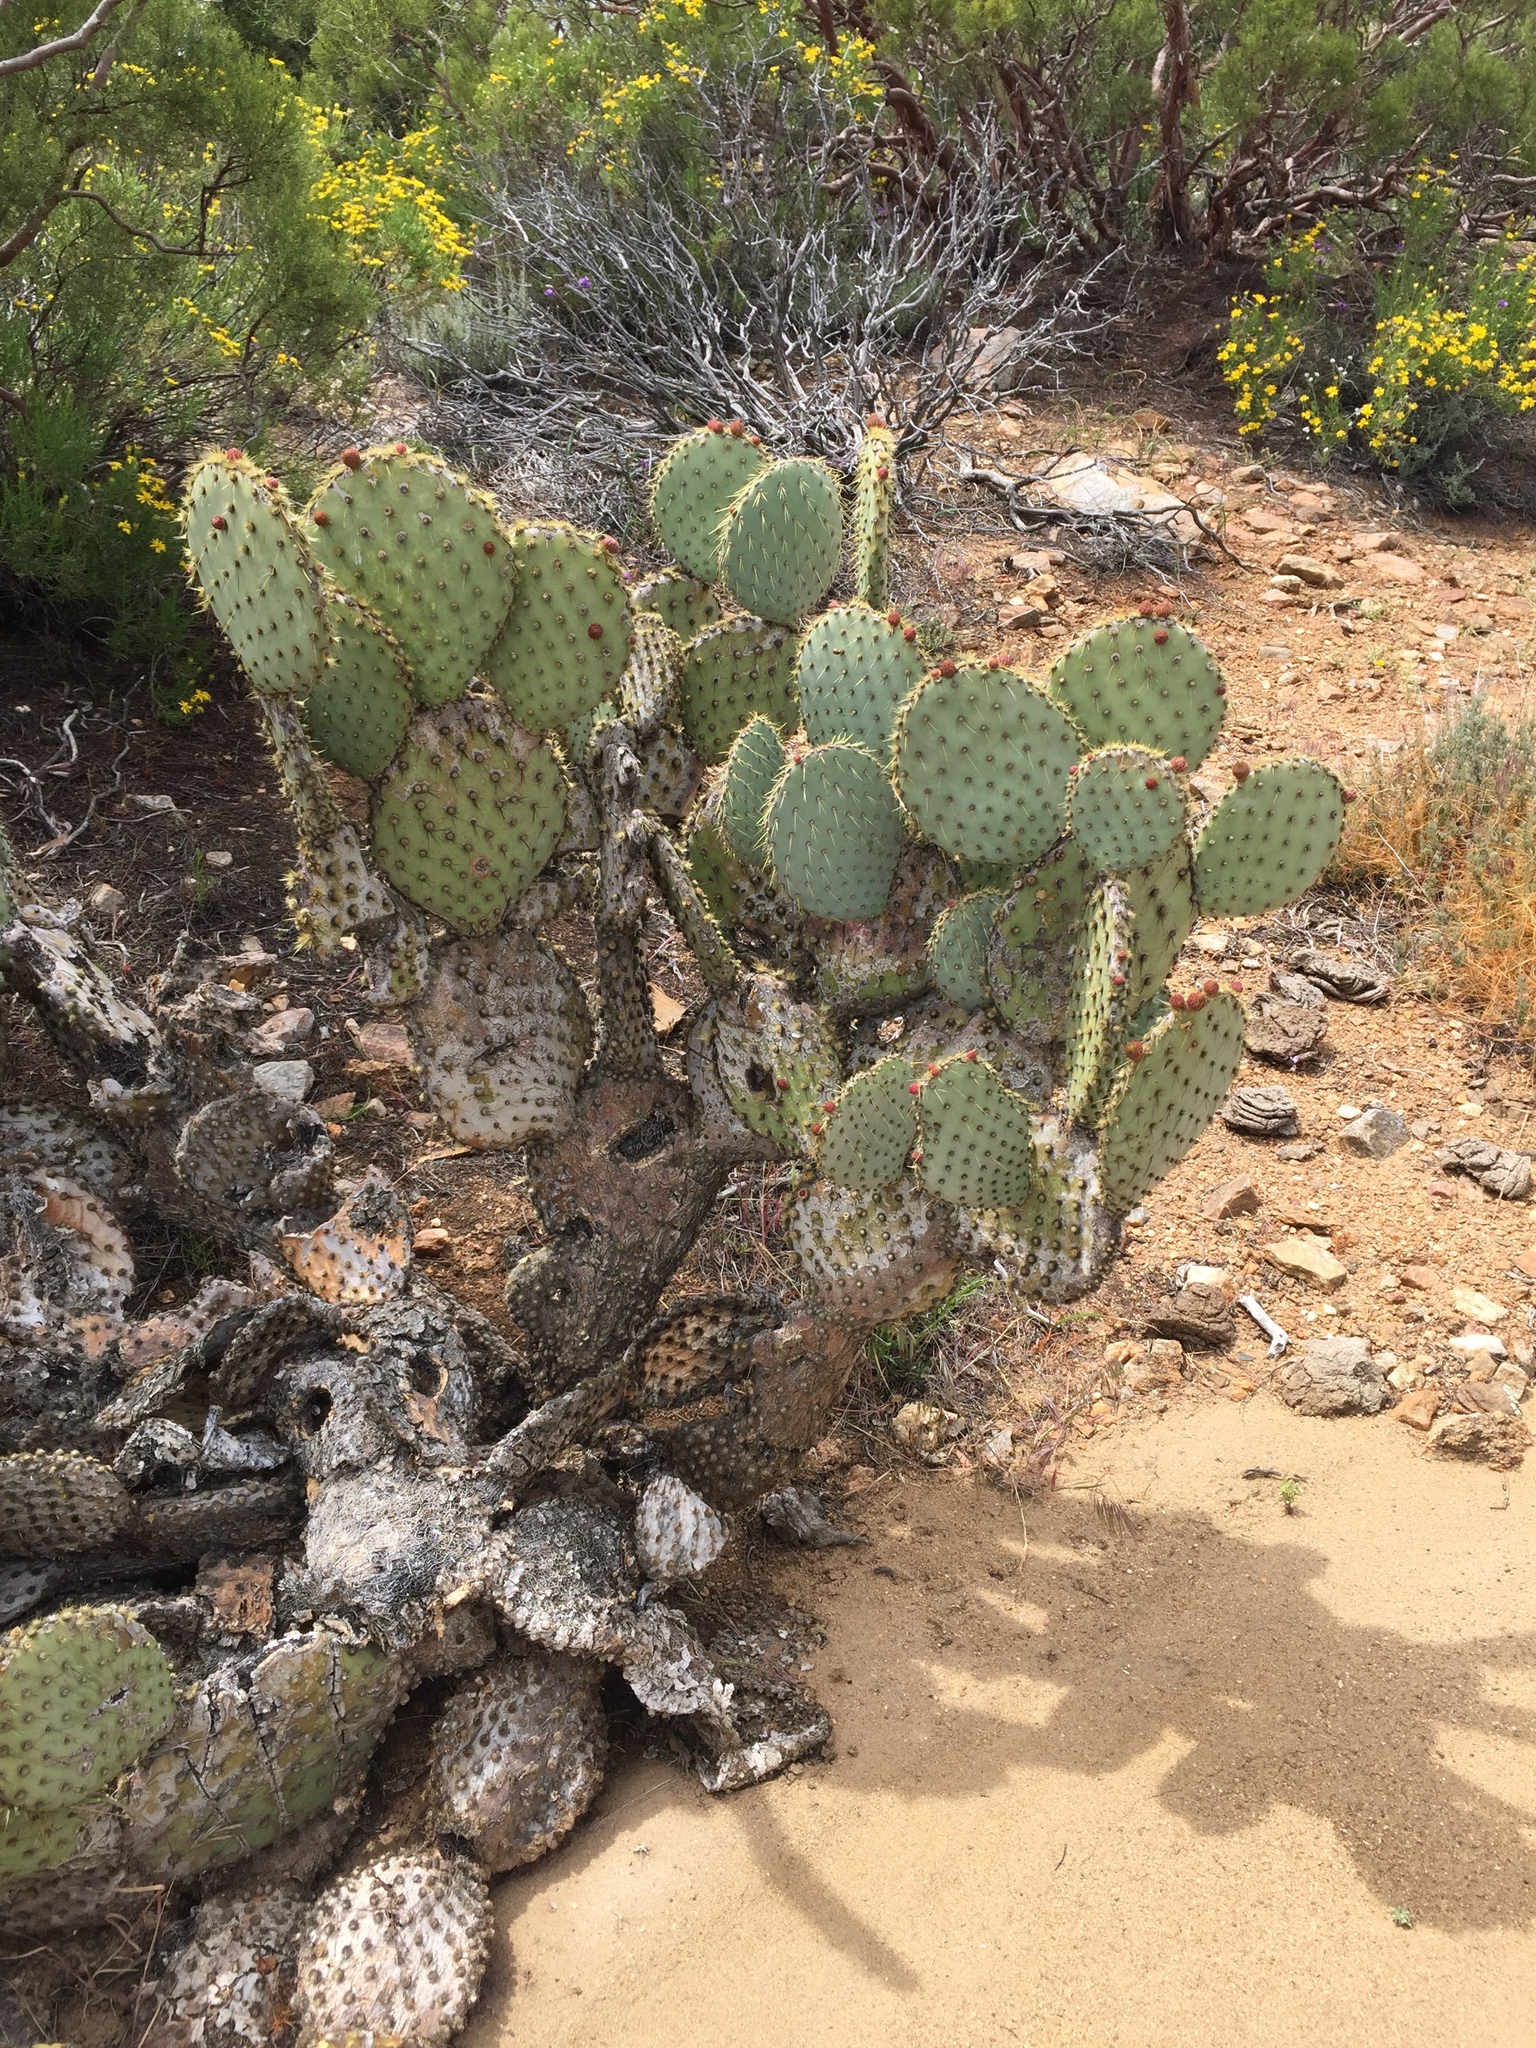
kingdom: Plantae
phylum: Tracheophyta
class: Magnoliopsida
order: Caryophyllales
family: Cactaceae
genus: Opuntia
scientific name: Opuntia chlorotica
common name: Dollar-joint prickly-pear
